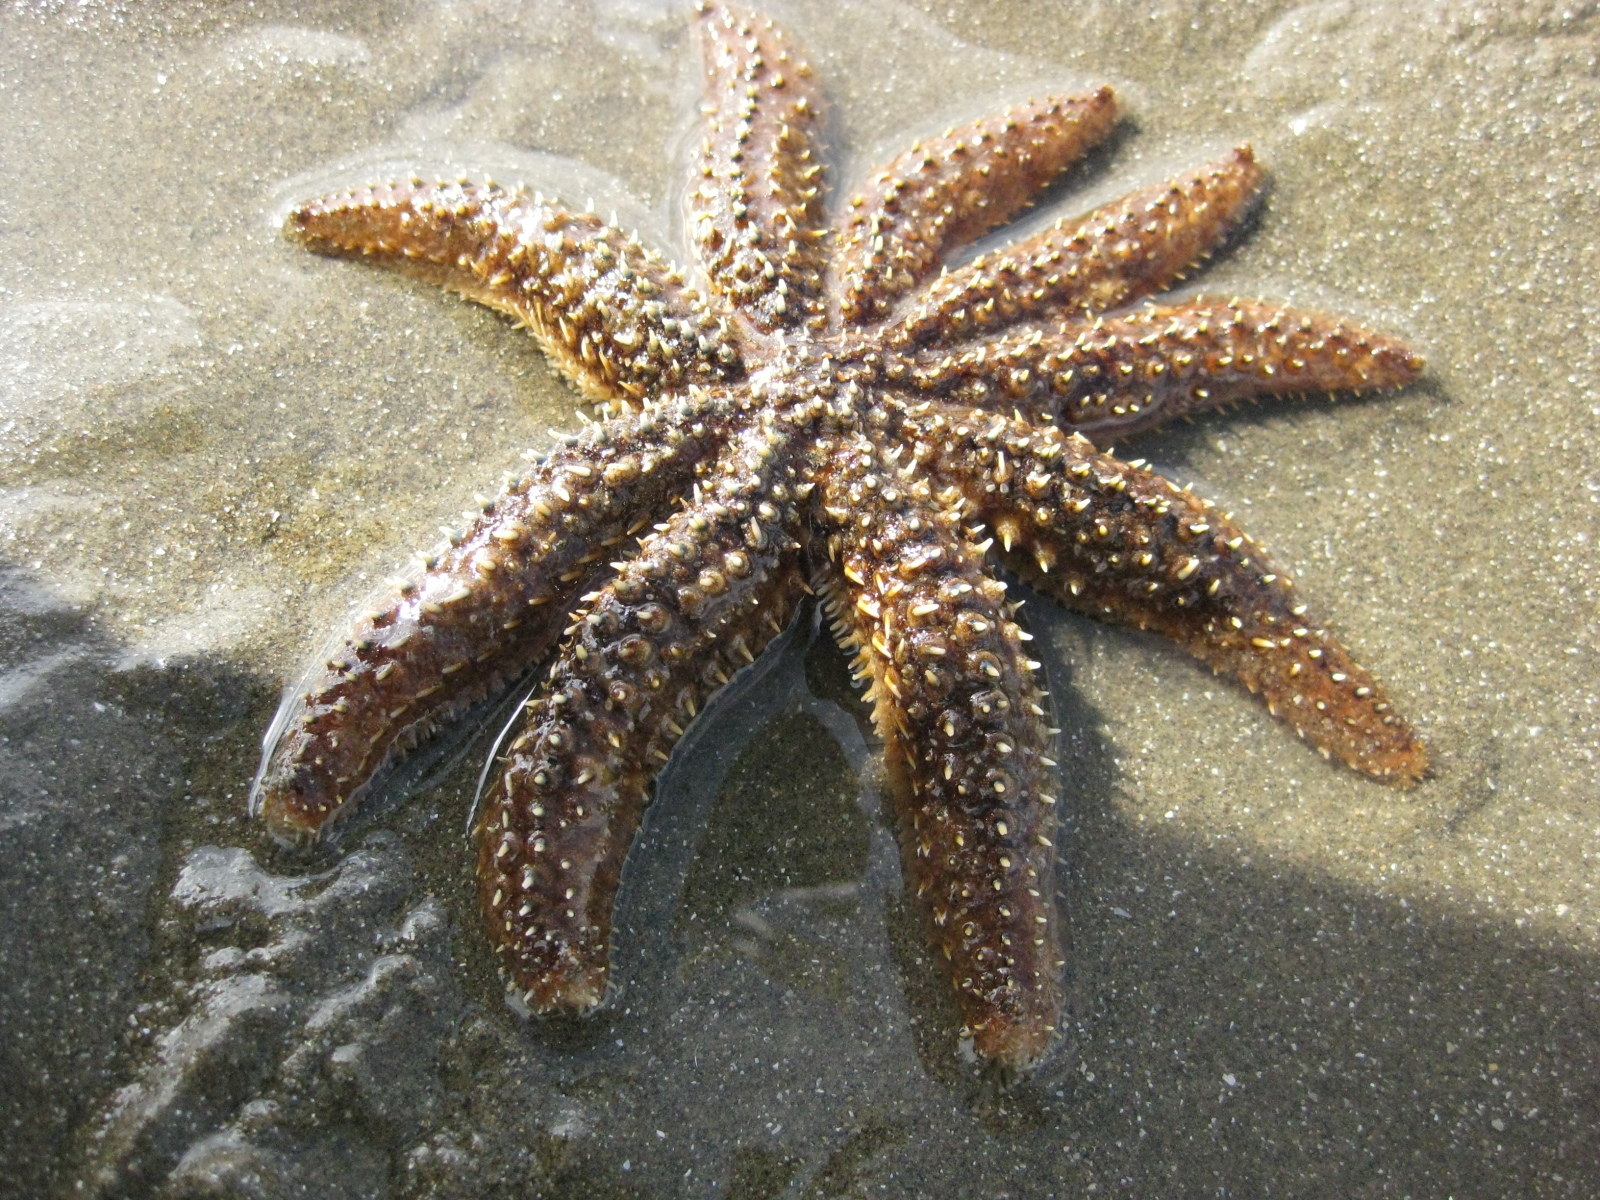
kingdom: Animalia
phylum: Echinodermata
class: Asteroidea
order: Forcipulatida
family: Asteriidae
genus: Coscinasterias
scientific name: Coscinasterias muricata
